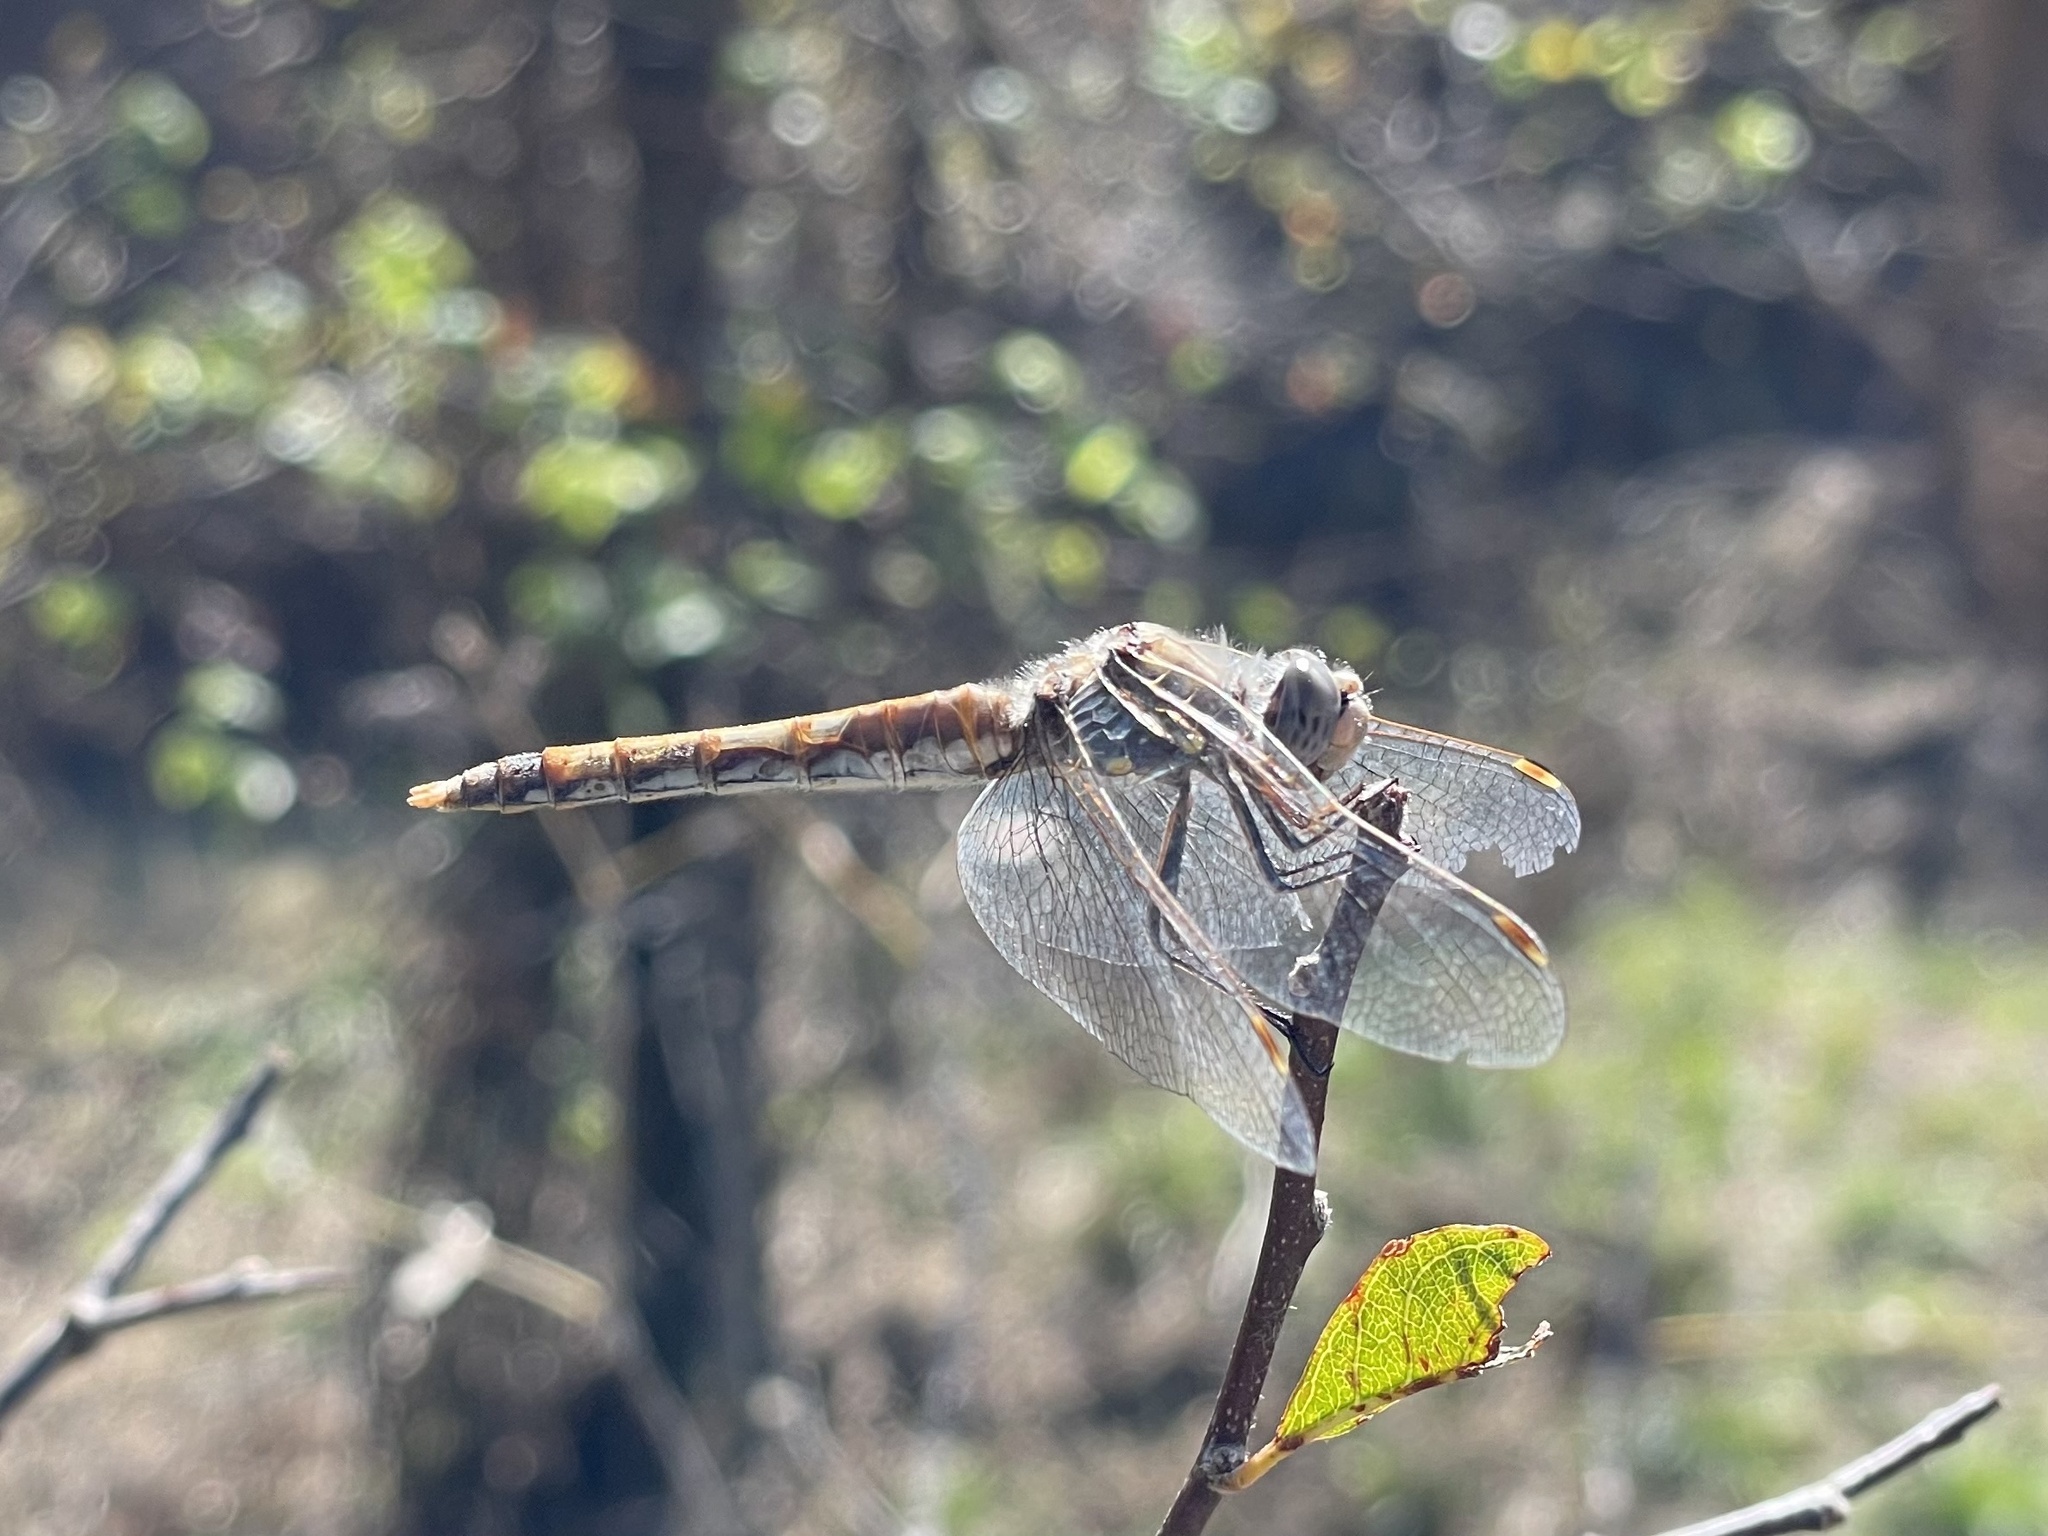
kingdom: Animalia
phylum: Arthropoda
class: Insecta
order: Odonata
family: Libellulidae
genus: Sympetrum
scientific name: Sympetrum corruptum
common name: Variegated meadowhawk
